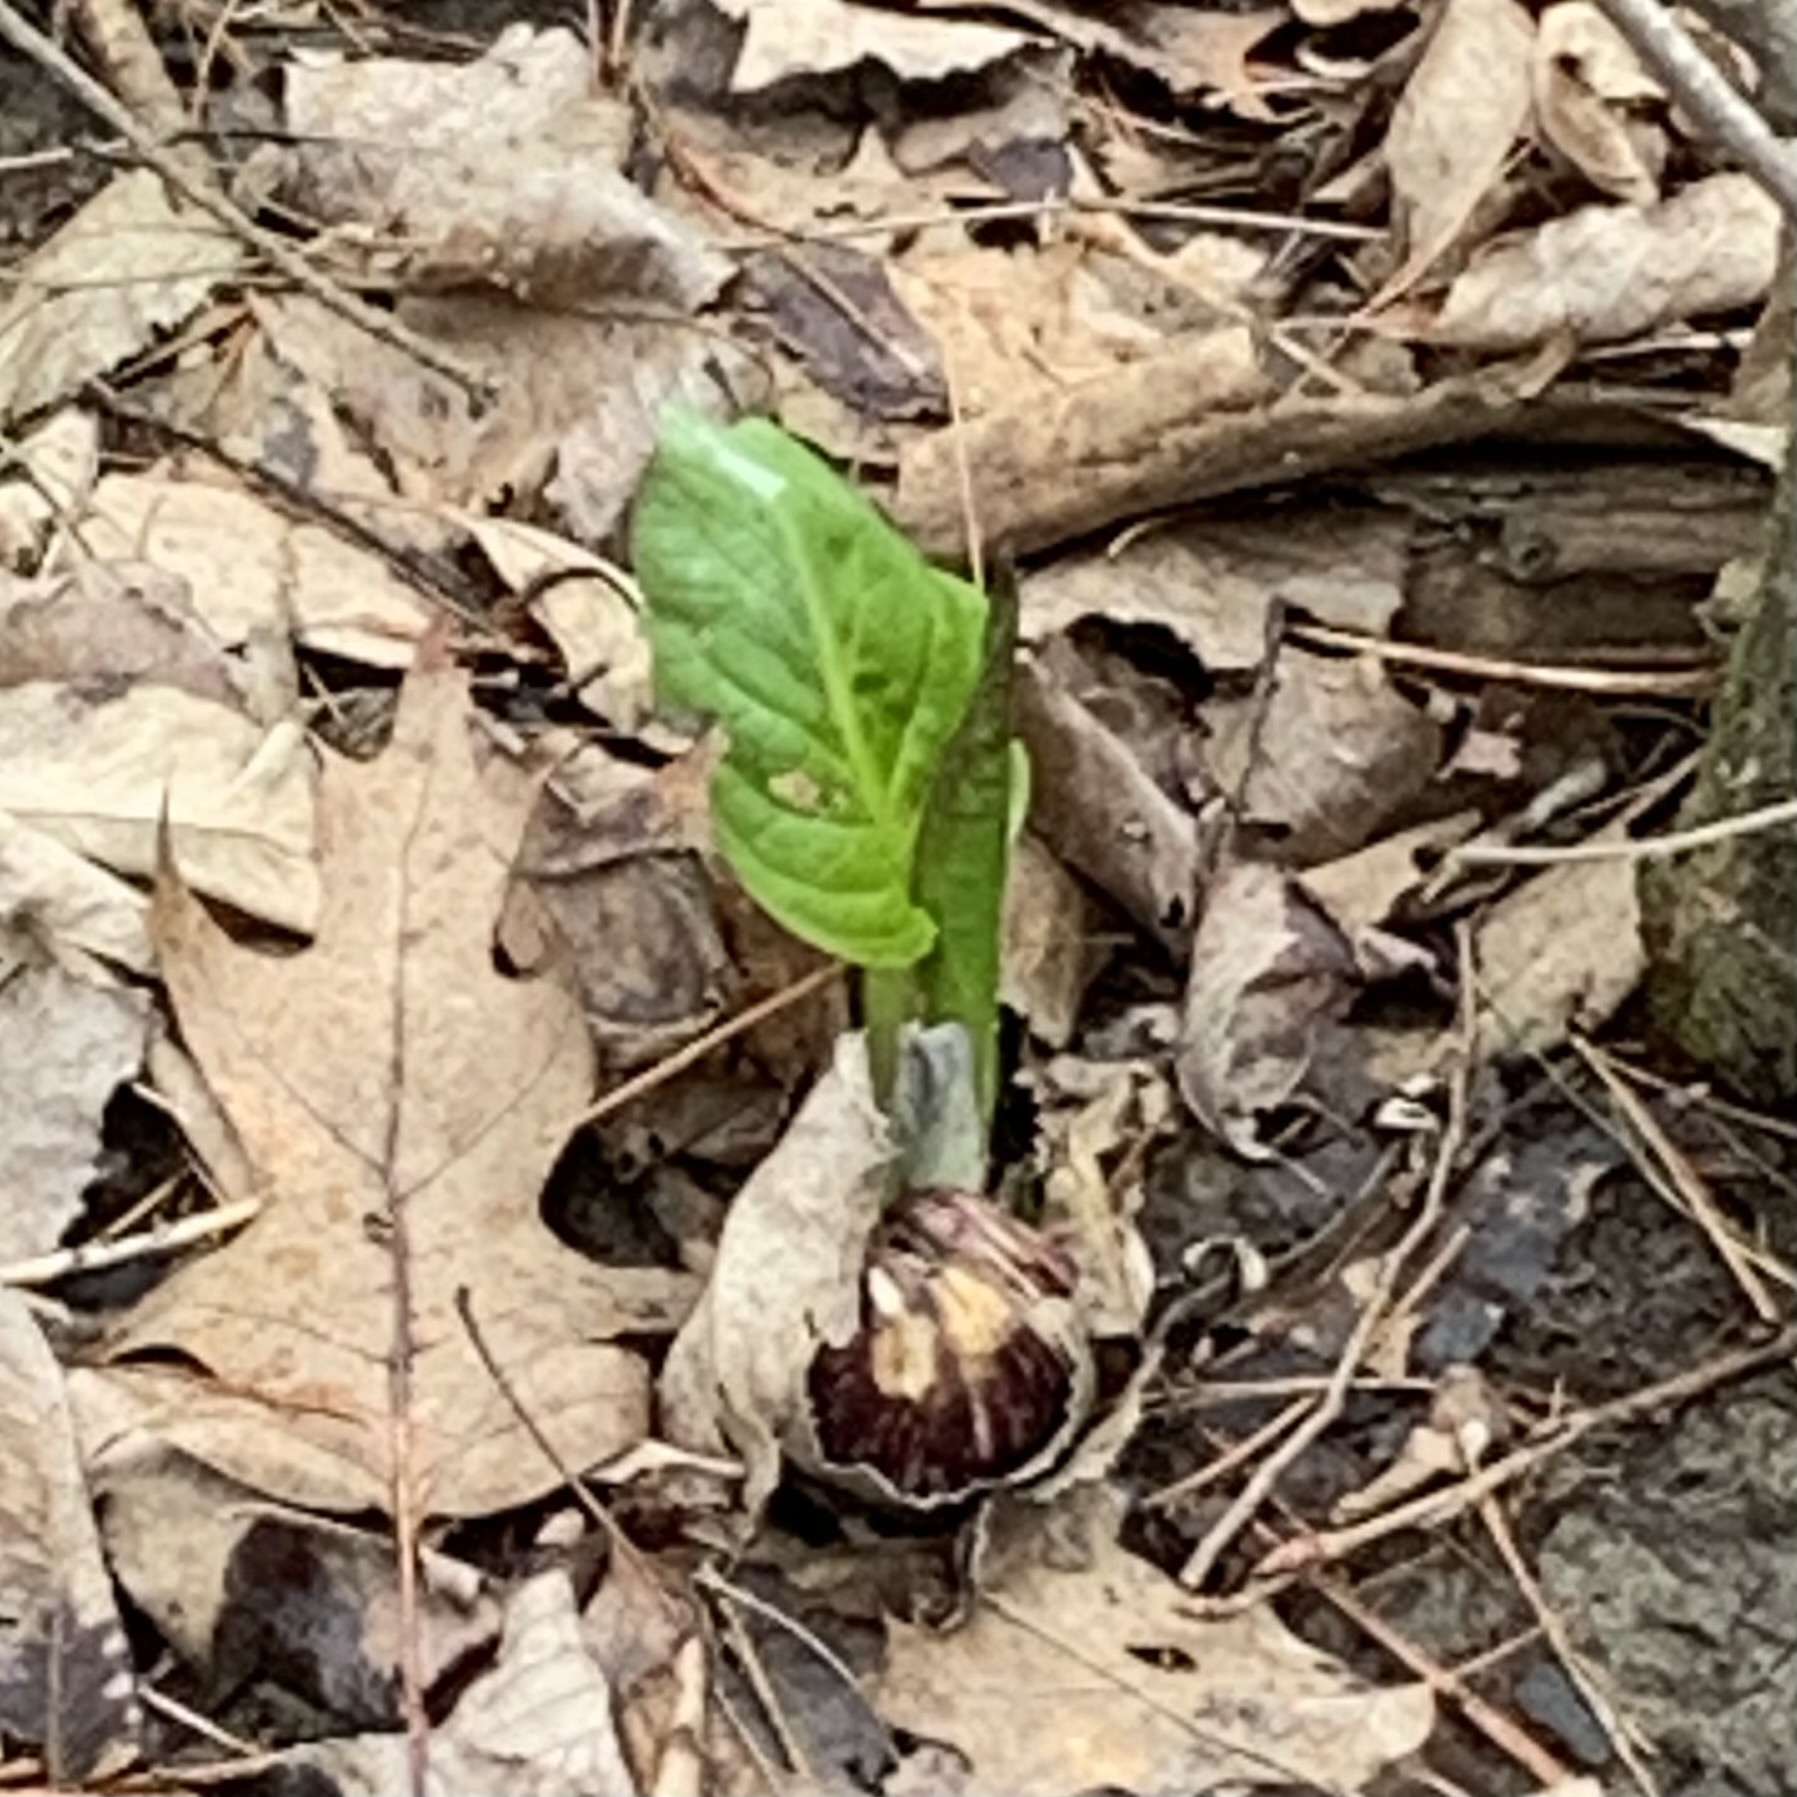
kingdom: Plantae
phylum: Tracheophyta
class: Liliopsida
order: Alismatales
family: Araceae
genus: Symplocarpus
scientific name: Symplocarpus foetidus
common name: Eastern skunk cabbage
